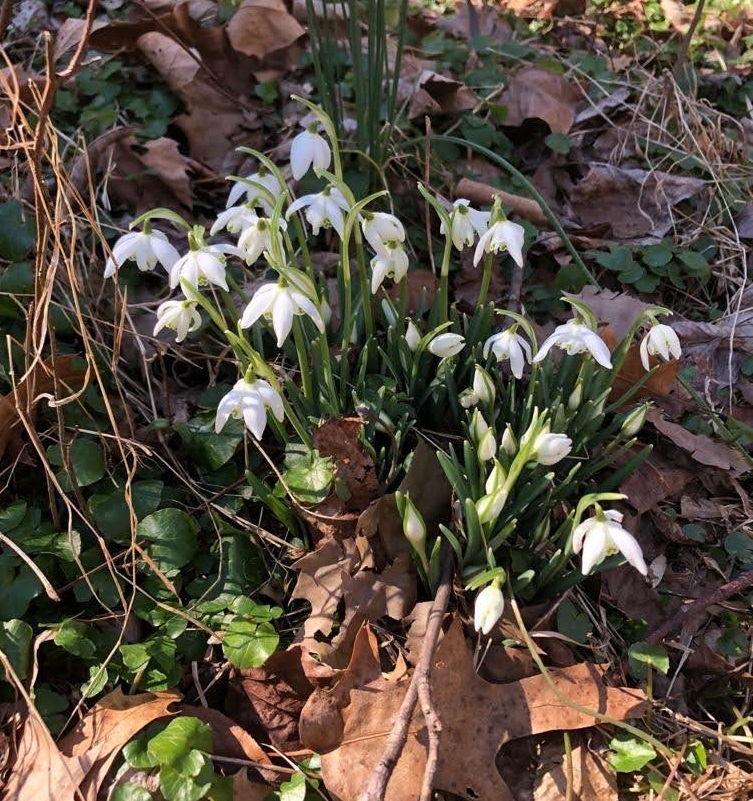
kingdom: Plantae
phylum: Tracheophyta
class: Liliopsida
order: Asparagales
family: Amaryllidaceae
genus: Galanthus
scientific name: Galanthus nivalis
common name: Snowdrop
